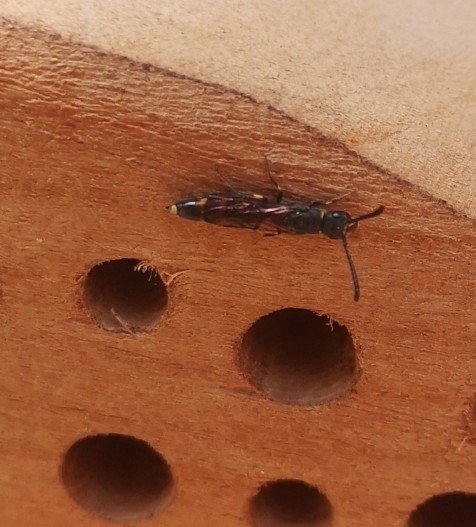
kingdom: Animalia
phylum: Arthropoda
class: Insecta
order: Hymenoptera
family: Sapygidae
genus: Monosapyga
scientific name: Monosapyga clavicornis
